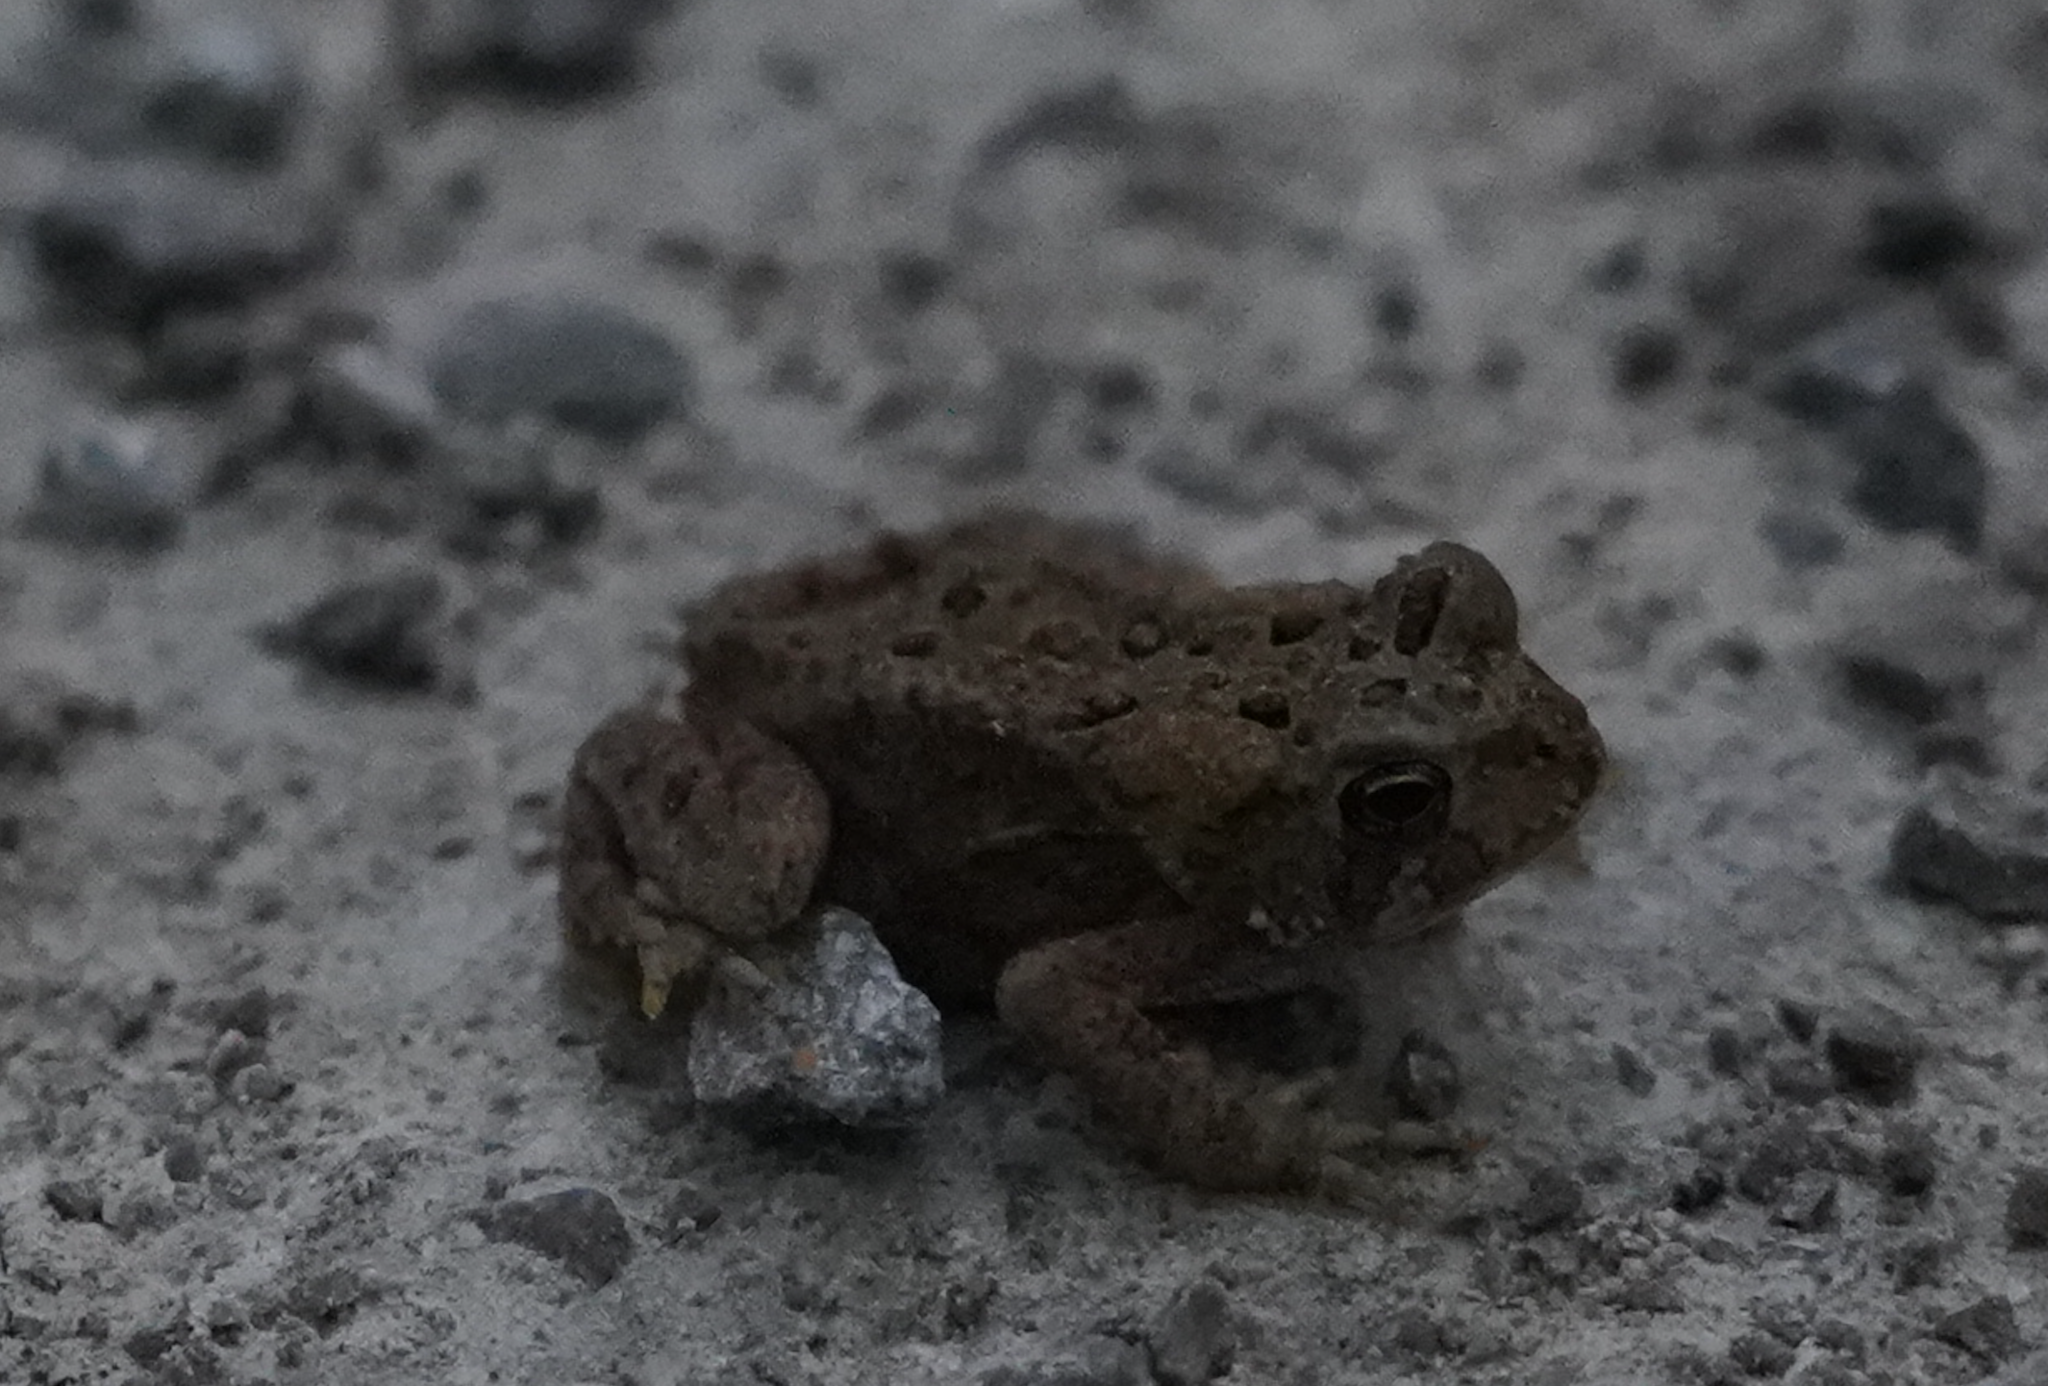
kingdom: Animalia
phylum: Chordata
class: Amphibia
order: Anura
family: Bufonidae
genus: Anaxyrus
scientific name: Anaxyrus americanus
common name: American toad
